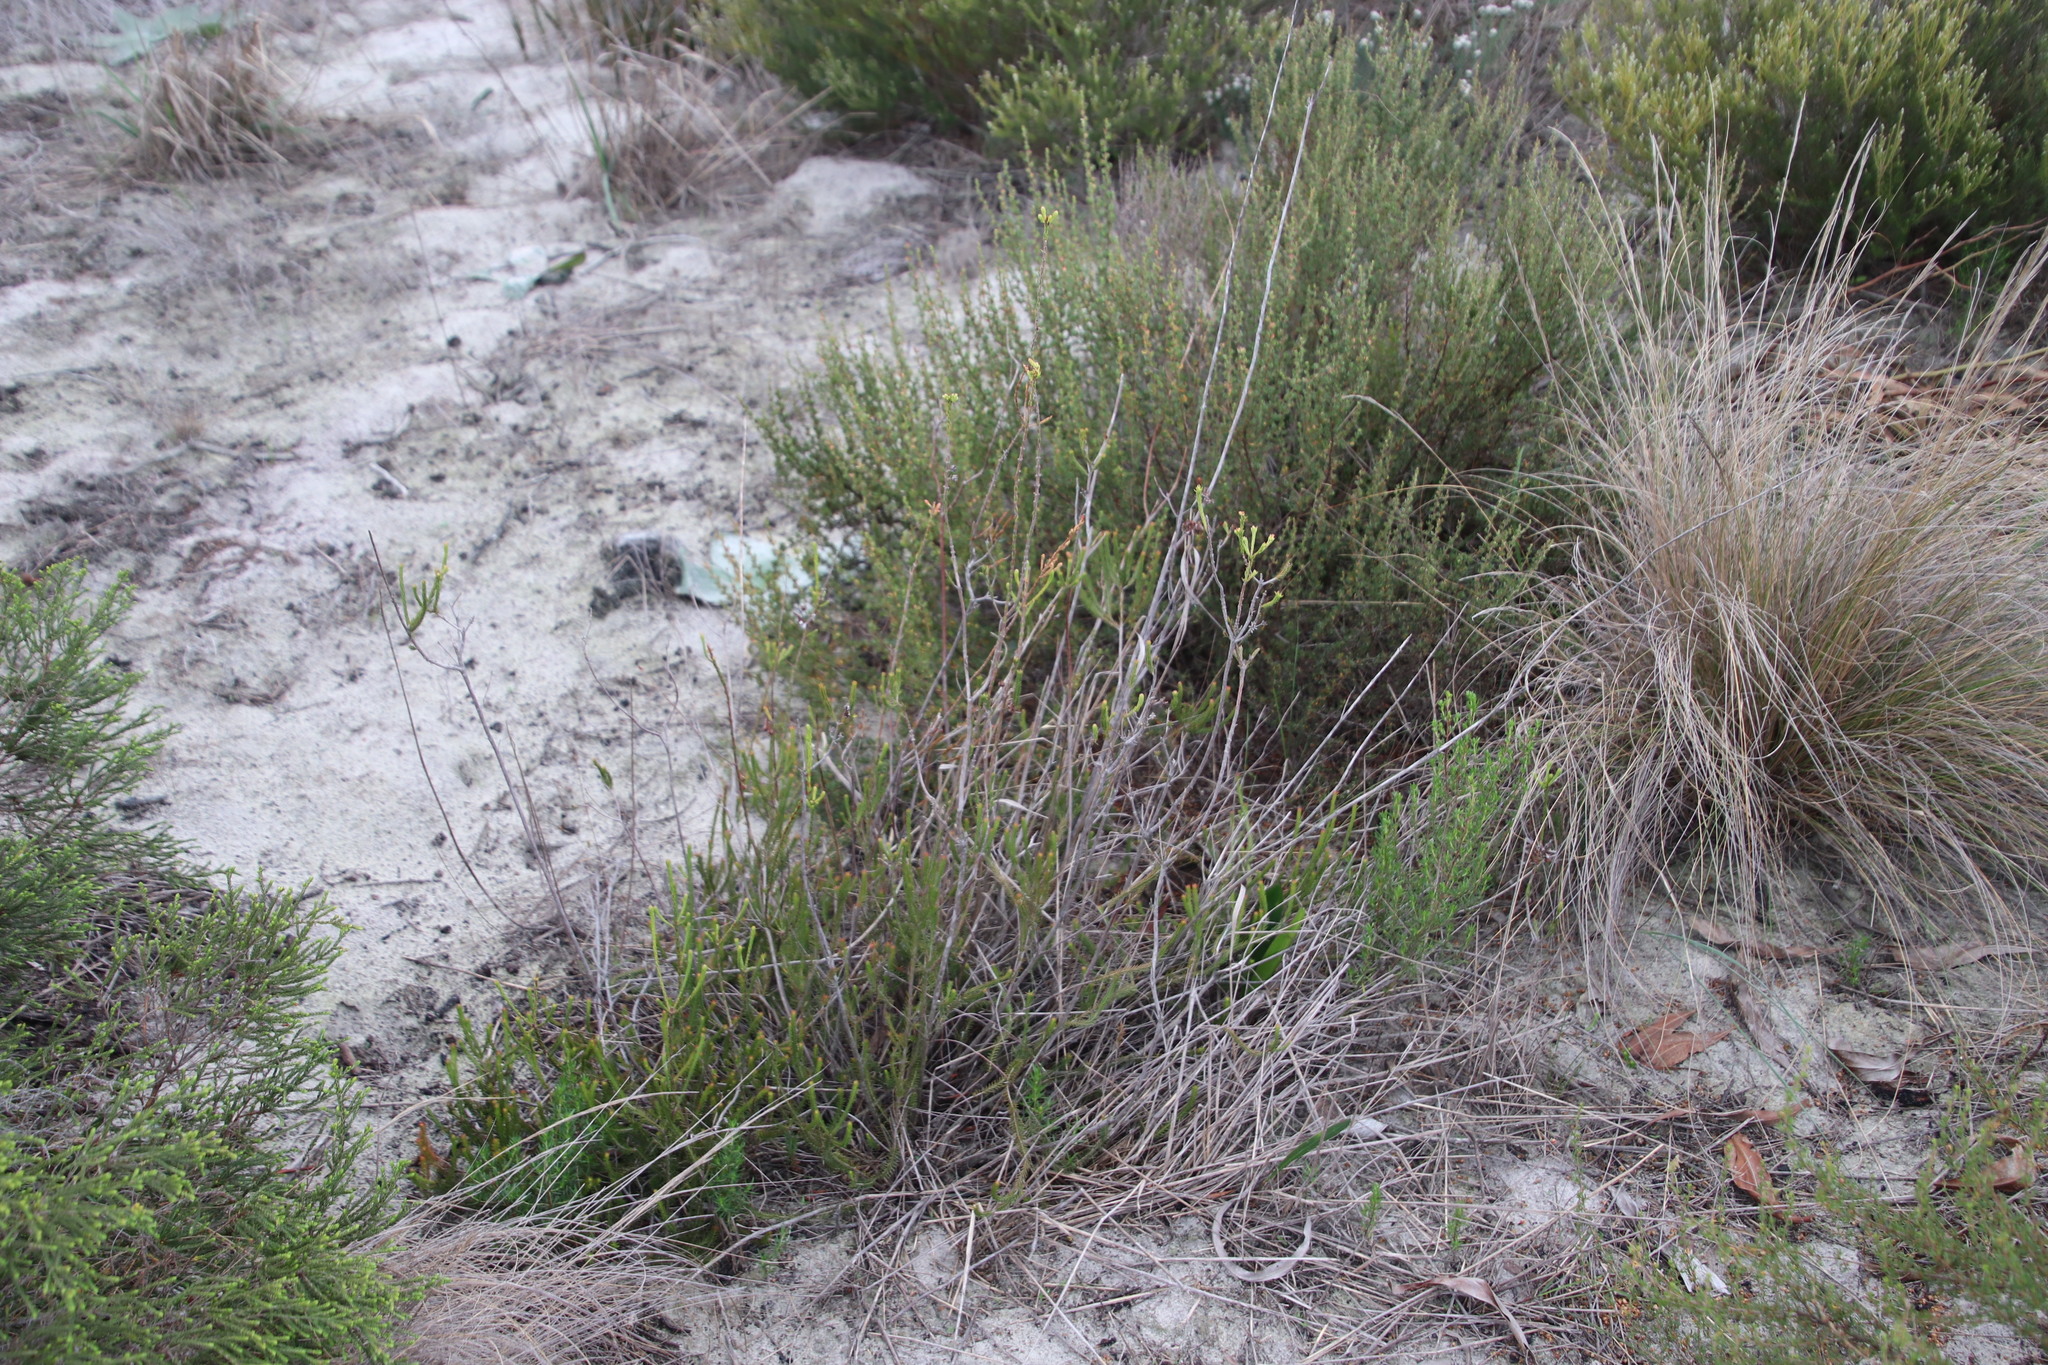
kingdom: Plantae
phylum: Tracheophyta
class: Magnoliopsida
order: Ericales
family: Ericaceae
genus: Erica
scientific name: Erica mammosa
